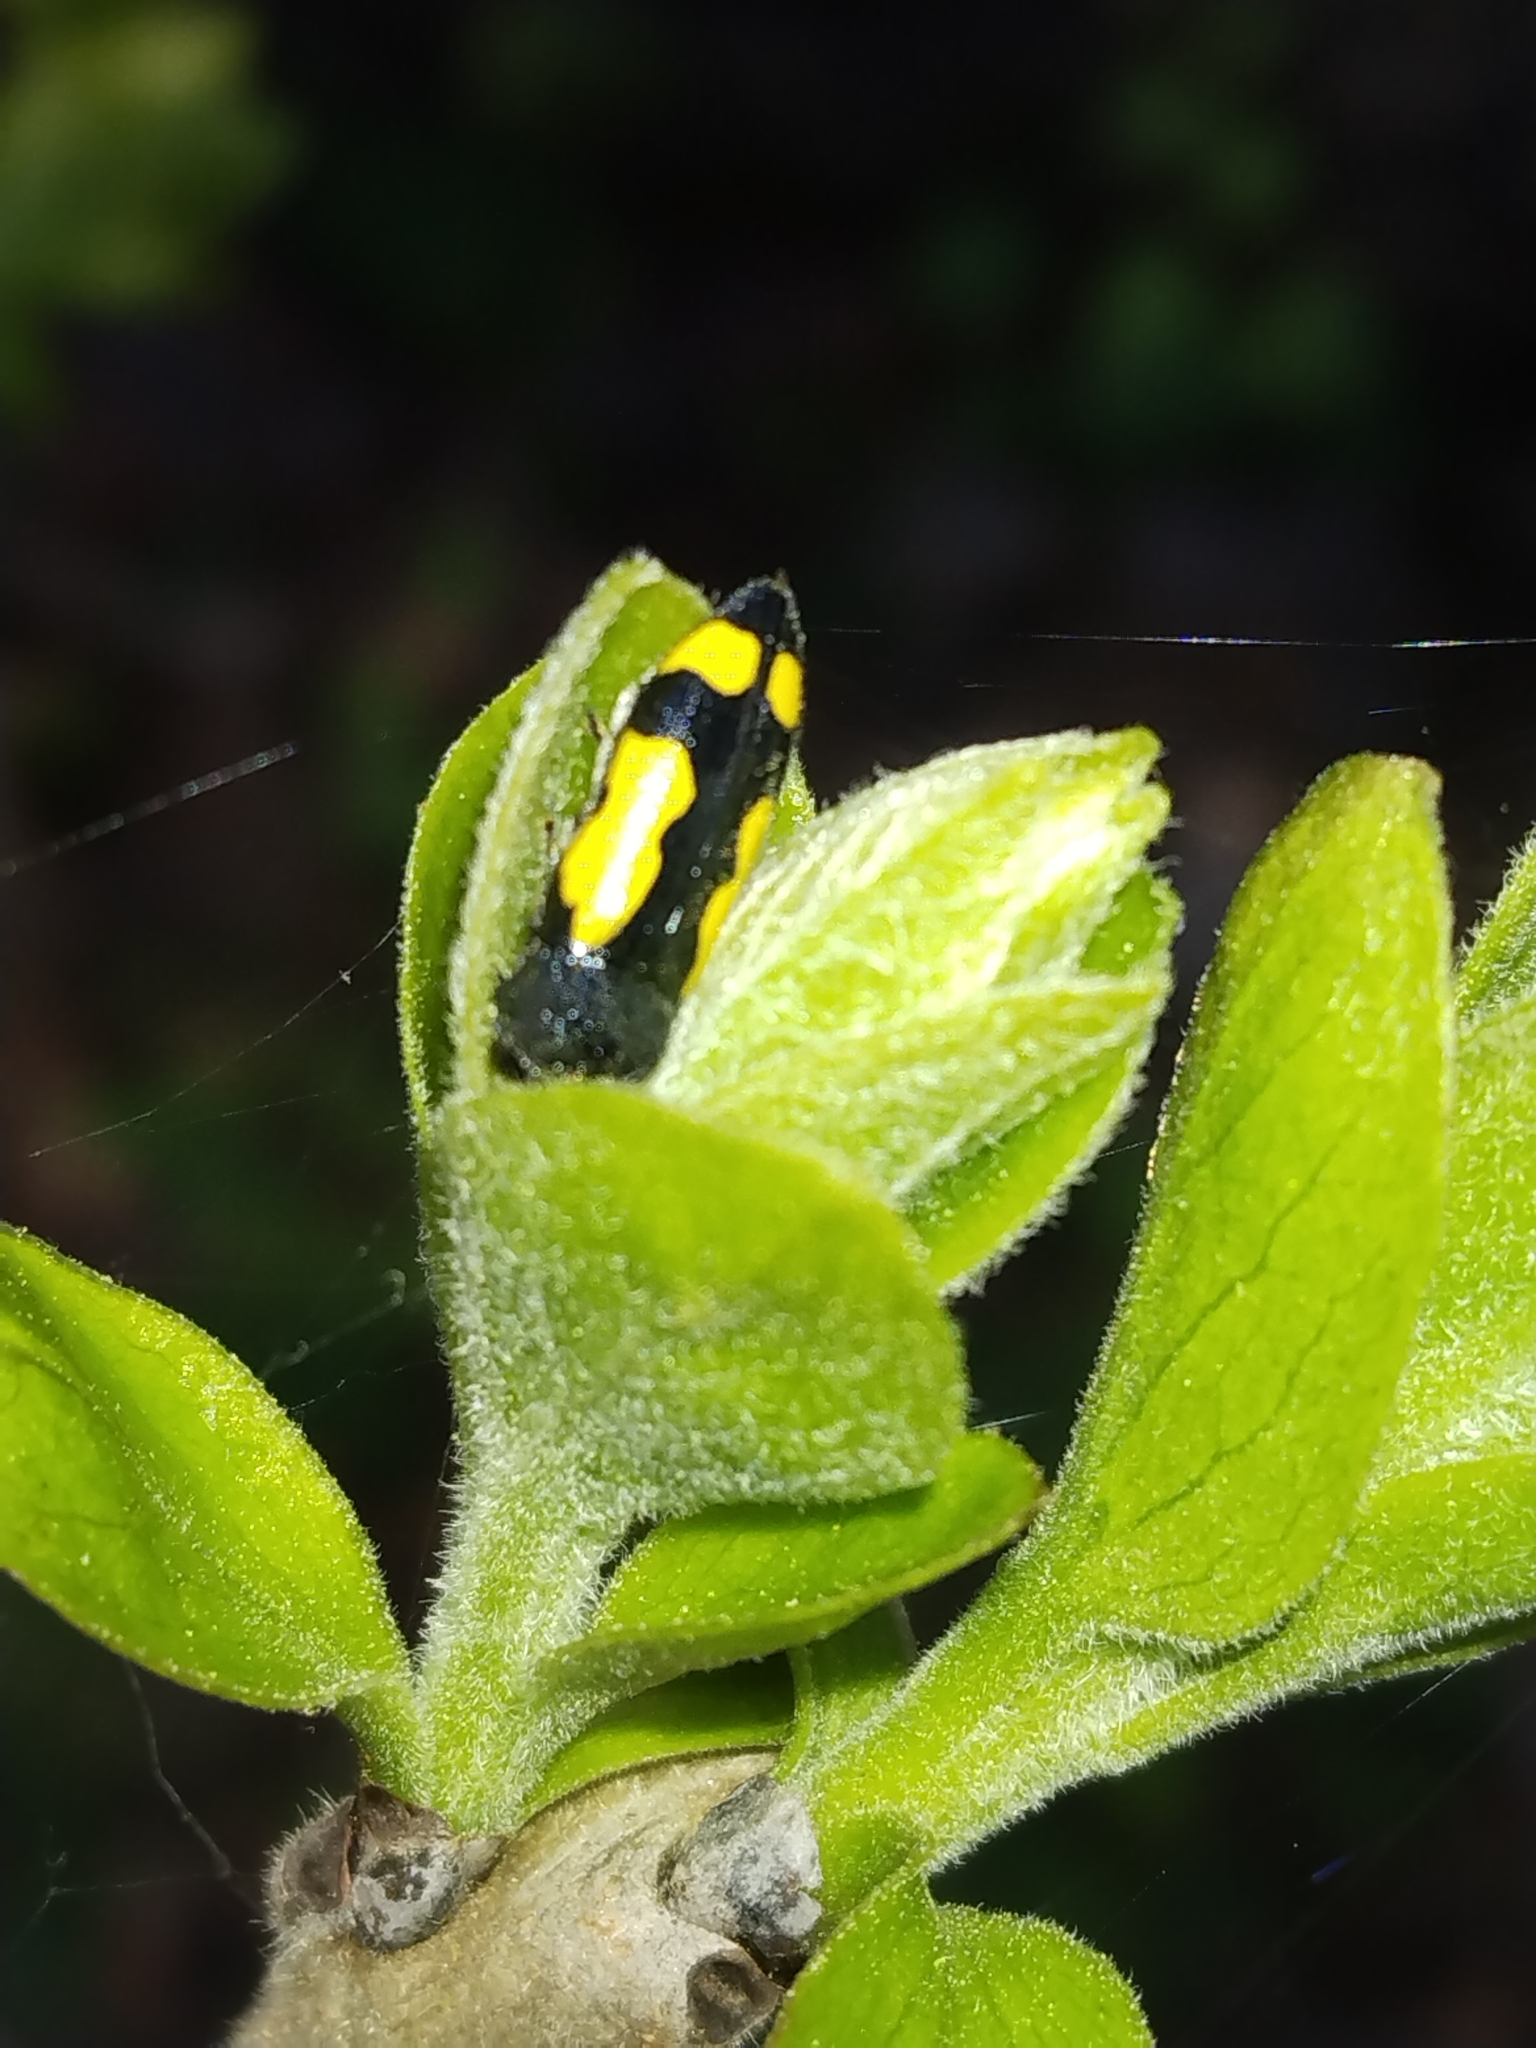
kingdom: Animalia
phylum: Arthropoda
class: Insecta
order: Coleoptera
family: Buprestidae
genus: Ptosima
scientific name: Ptosima gibbicollis
